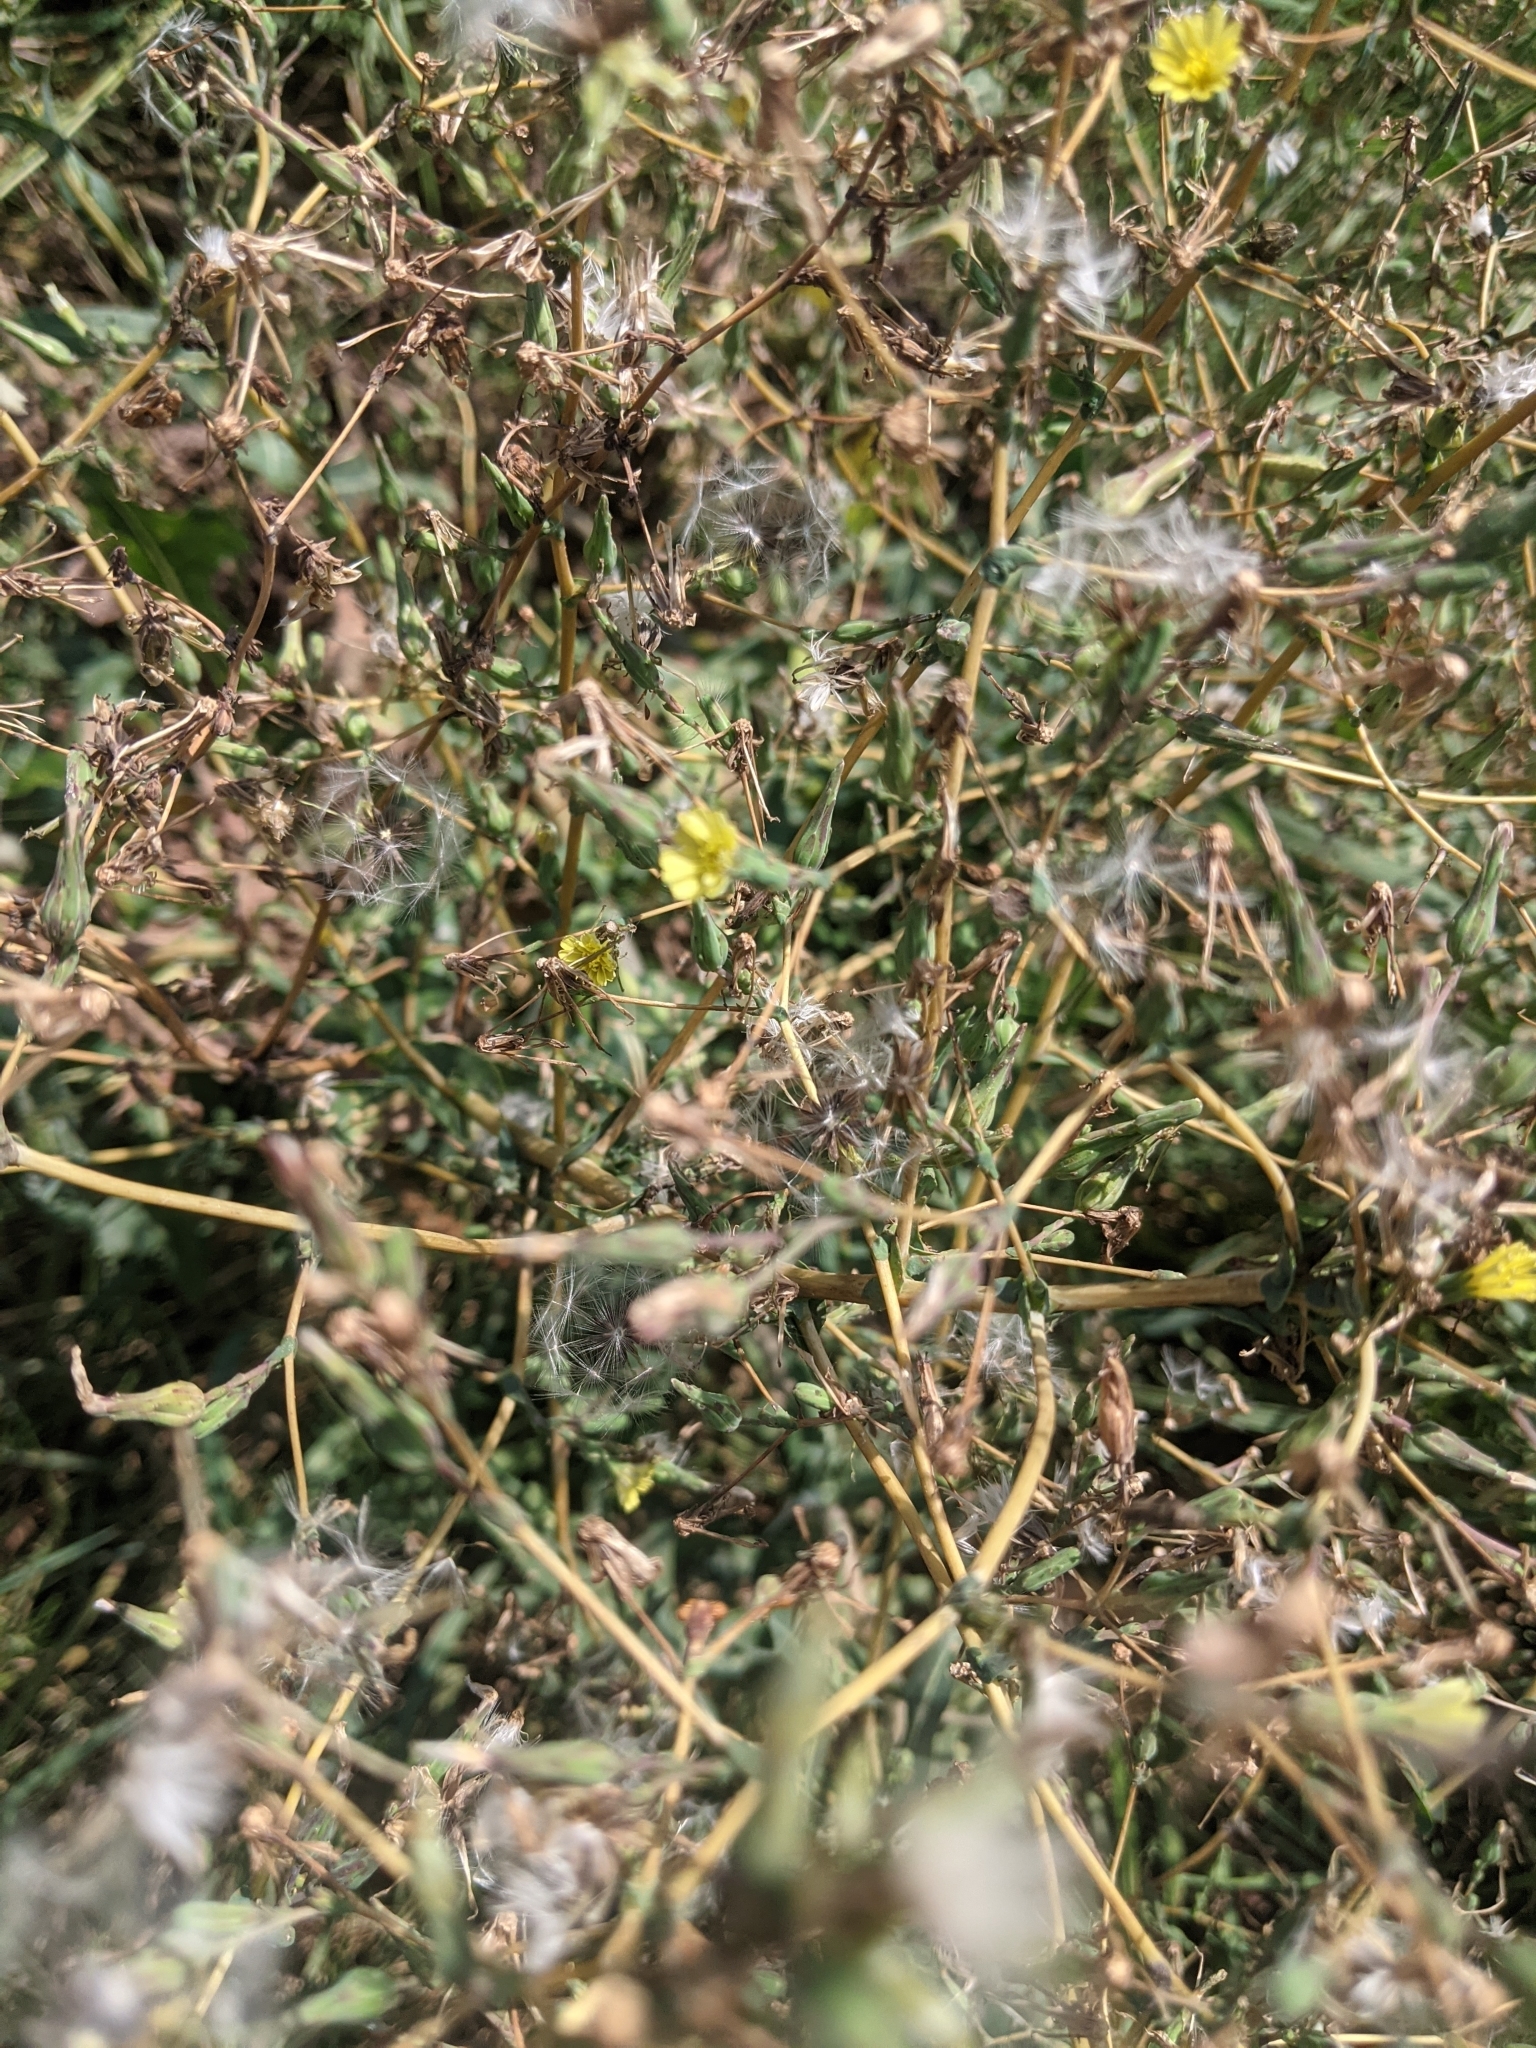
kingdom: Plantae
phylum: Tracheophyta
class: Magnoliopsida
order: Asterales
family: Asteraceae
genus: Lactuca
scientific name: Lactuca serriola
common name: Prickly lettuce
